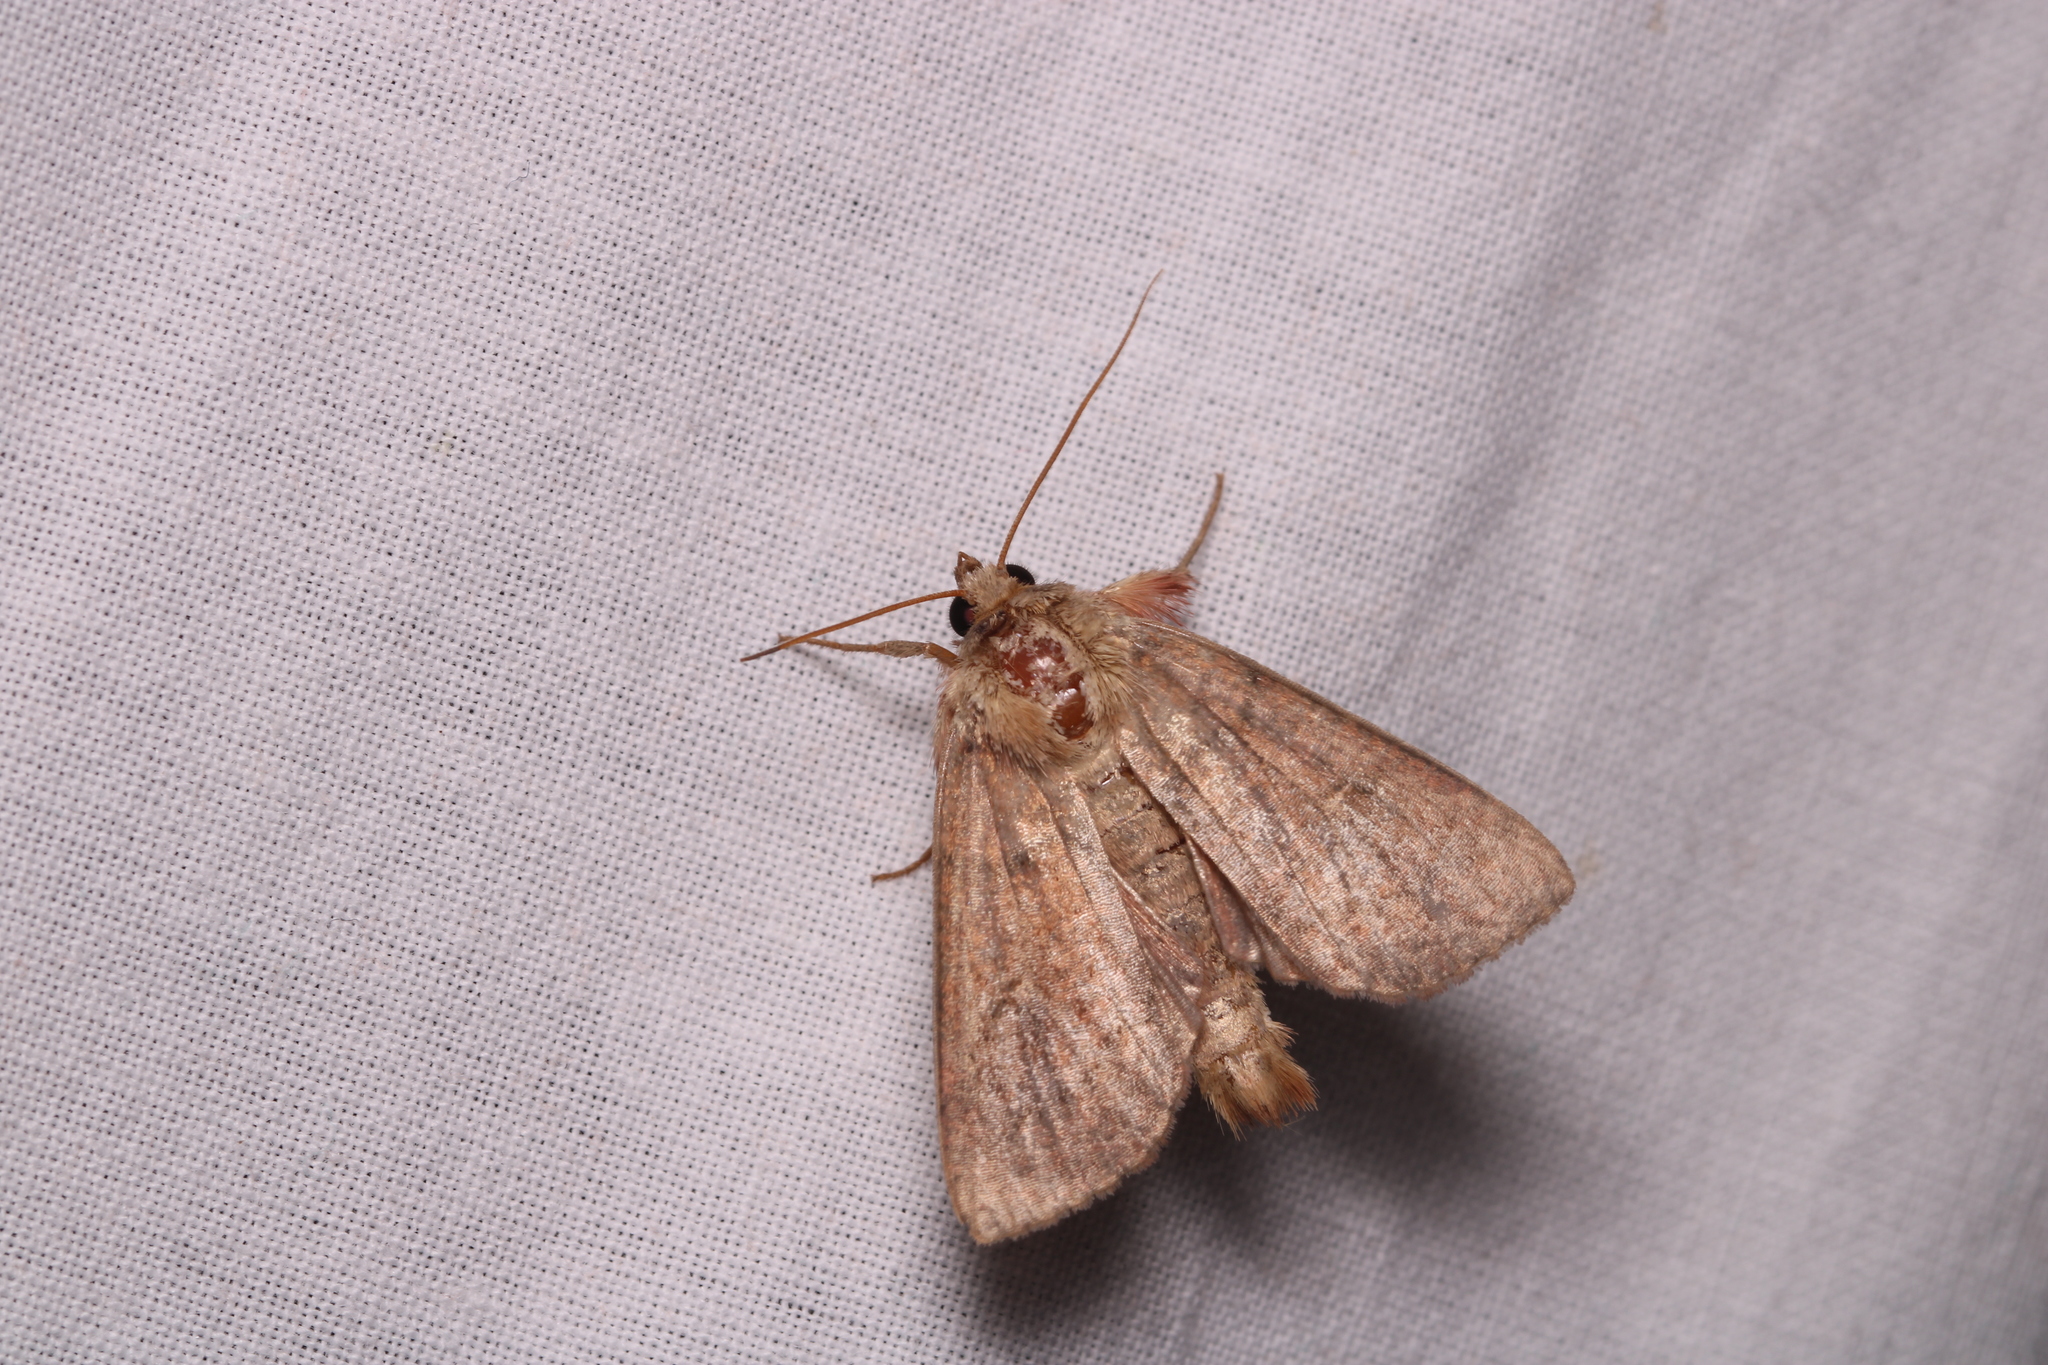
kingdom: Animalia
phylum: Arthropoda
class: Insecta
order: Lepidoptera
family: Noctuidae
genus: Mythimna
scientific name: Mythimna turca
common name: Double line
